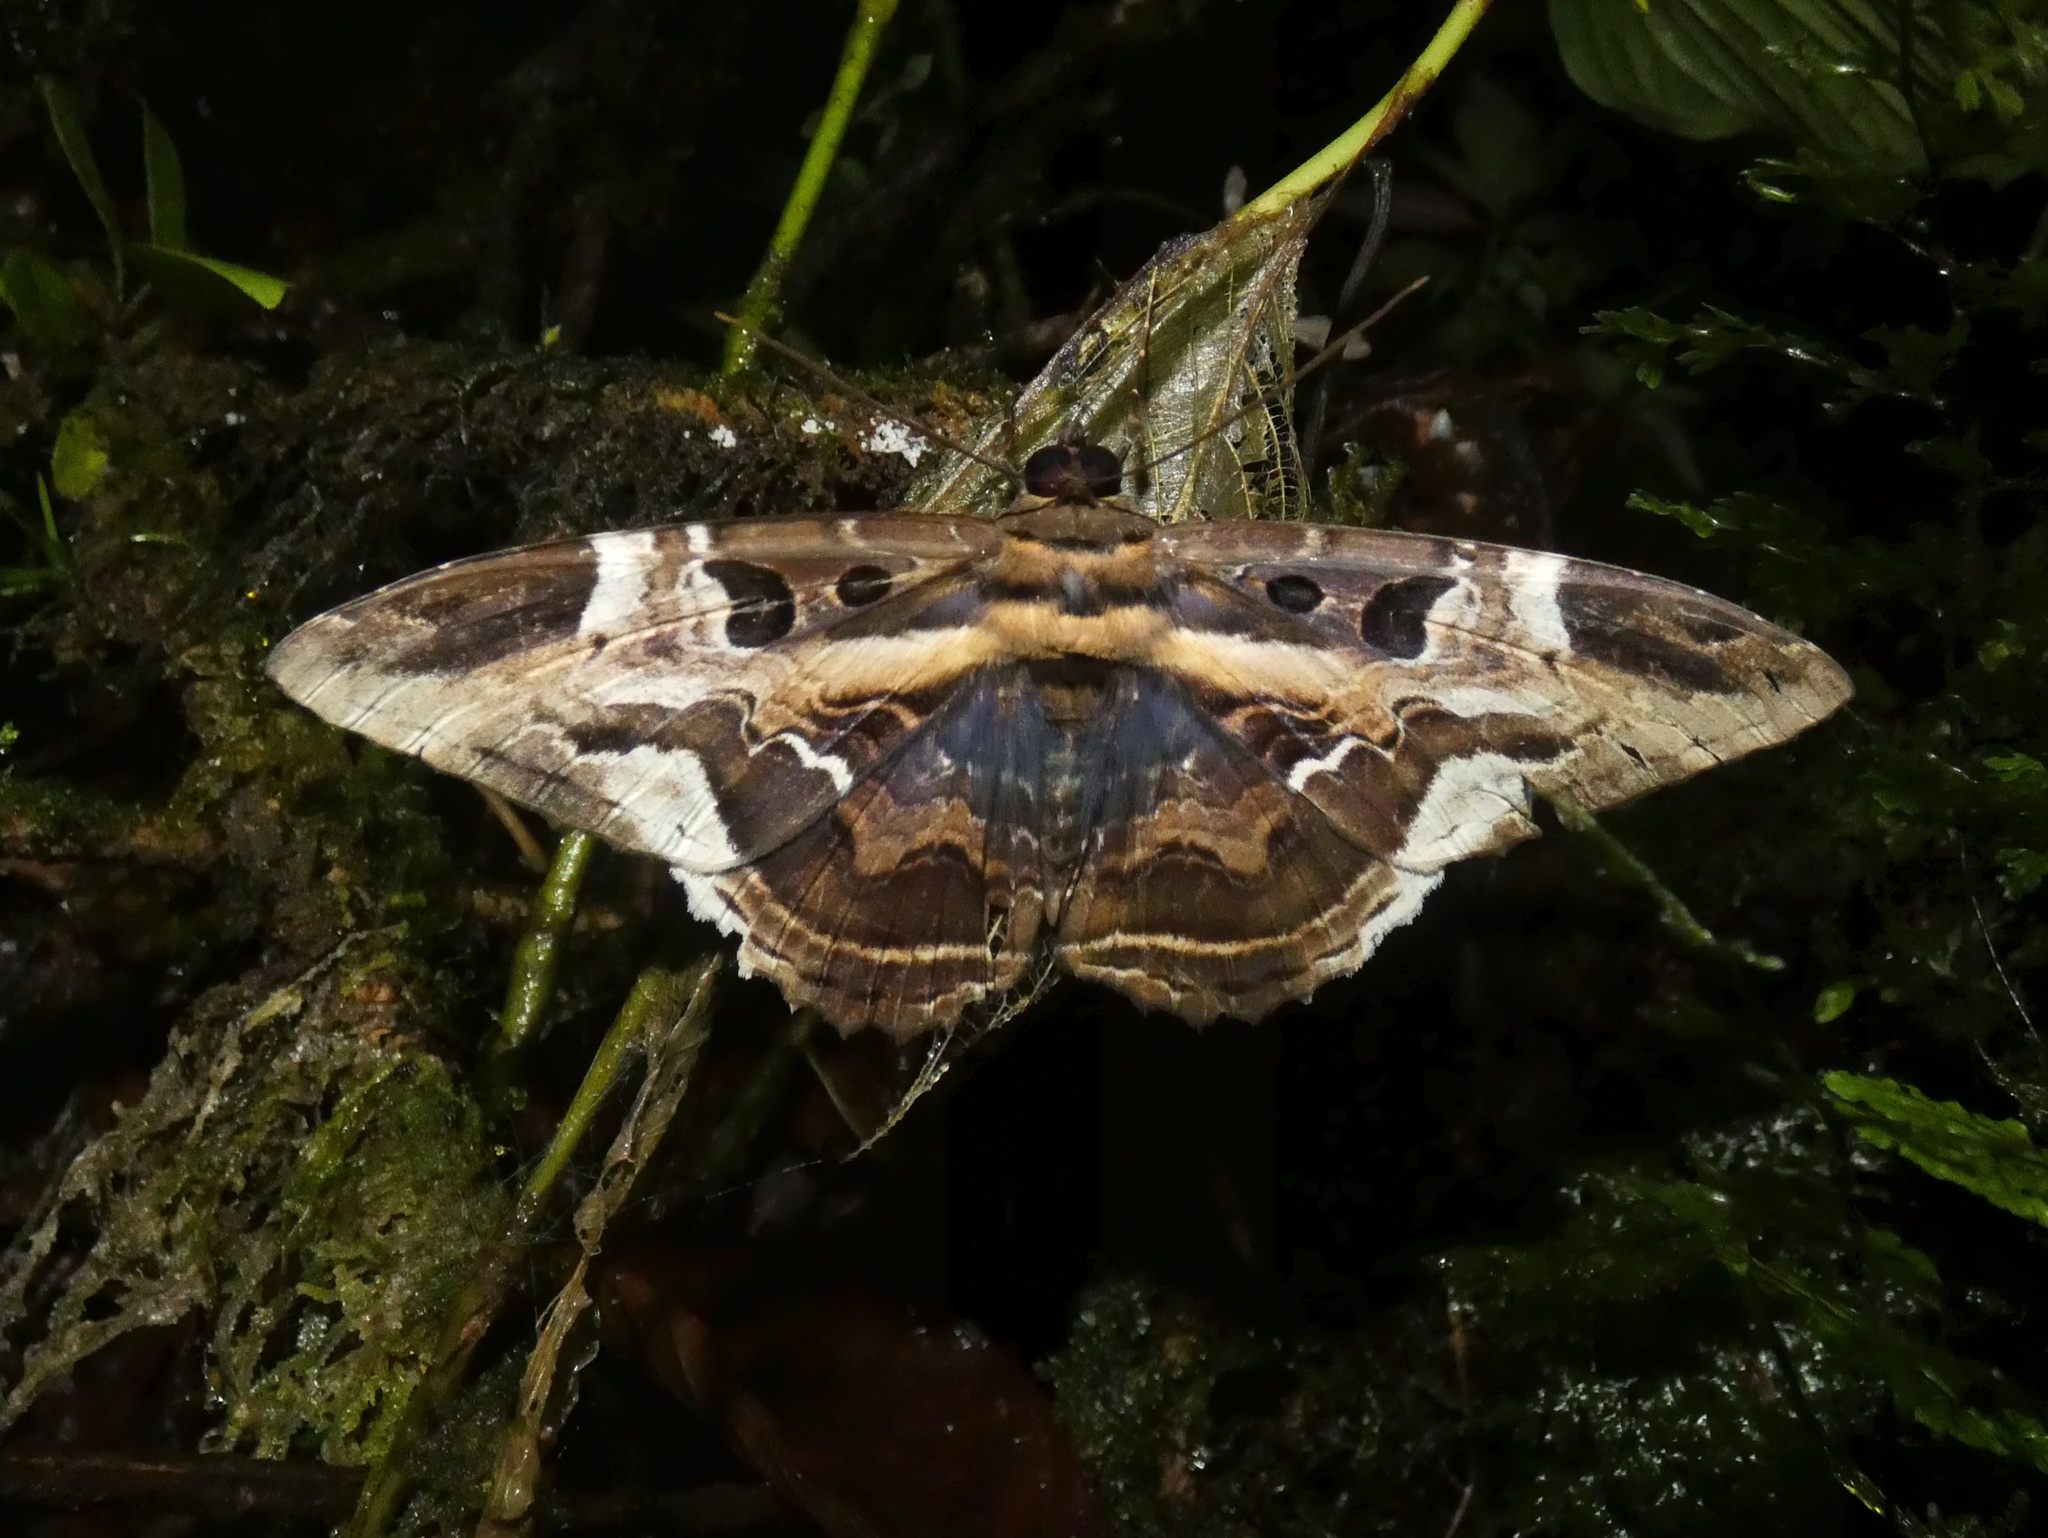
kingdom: Animalia
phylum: Arthropoda
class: Insecta
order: Lepidoptera
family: Erebidae
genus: Feigeria
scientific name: Feigeria herilia
